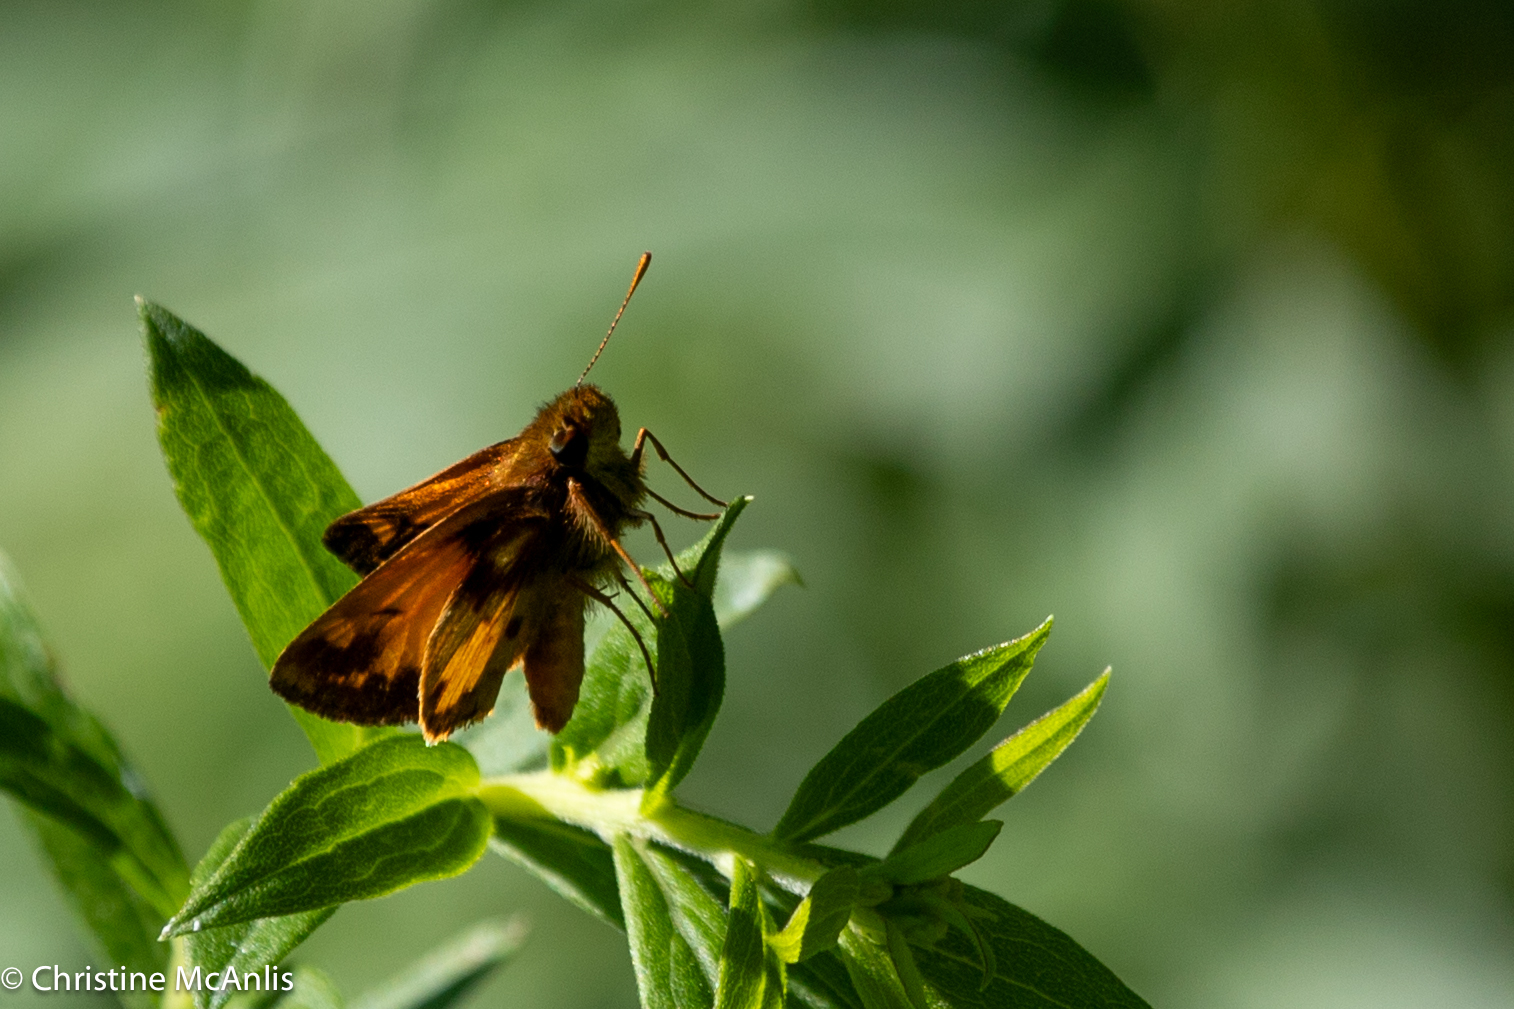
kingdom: Animalia
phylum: Arthropoda
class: Insecta
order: Lepidoptera
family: Hesperiidae
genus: Lon
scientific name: Lon zabulon
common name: Zabulon skipper
